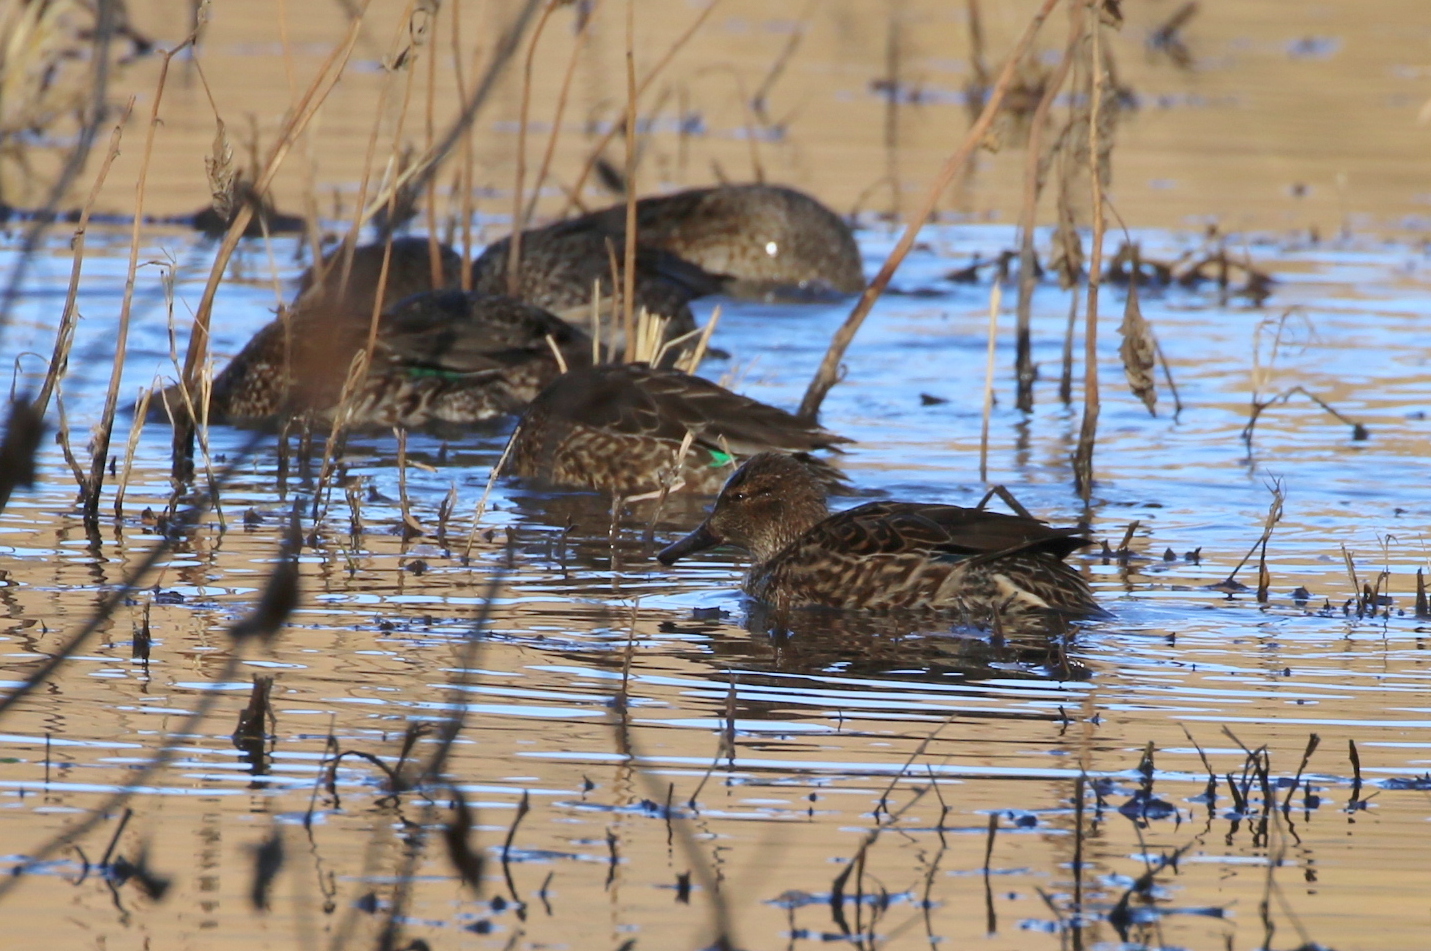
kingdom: Animalia
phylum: Chordata
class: Aves
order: Anseriformes
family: Anatidae
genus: Anas
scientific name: Anas crecca
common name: Eurasian teal
